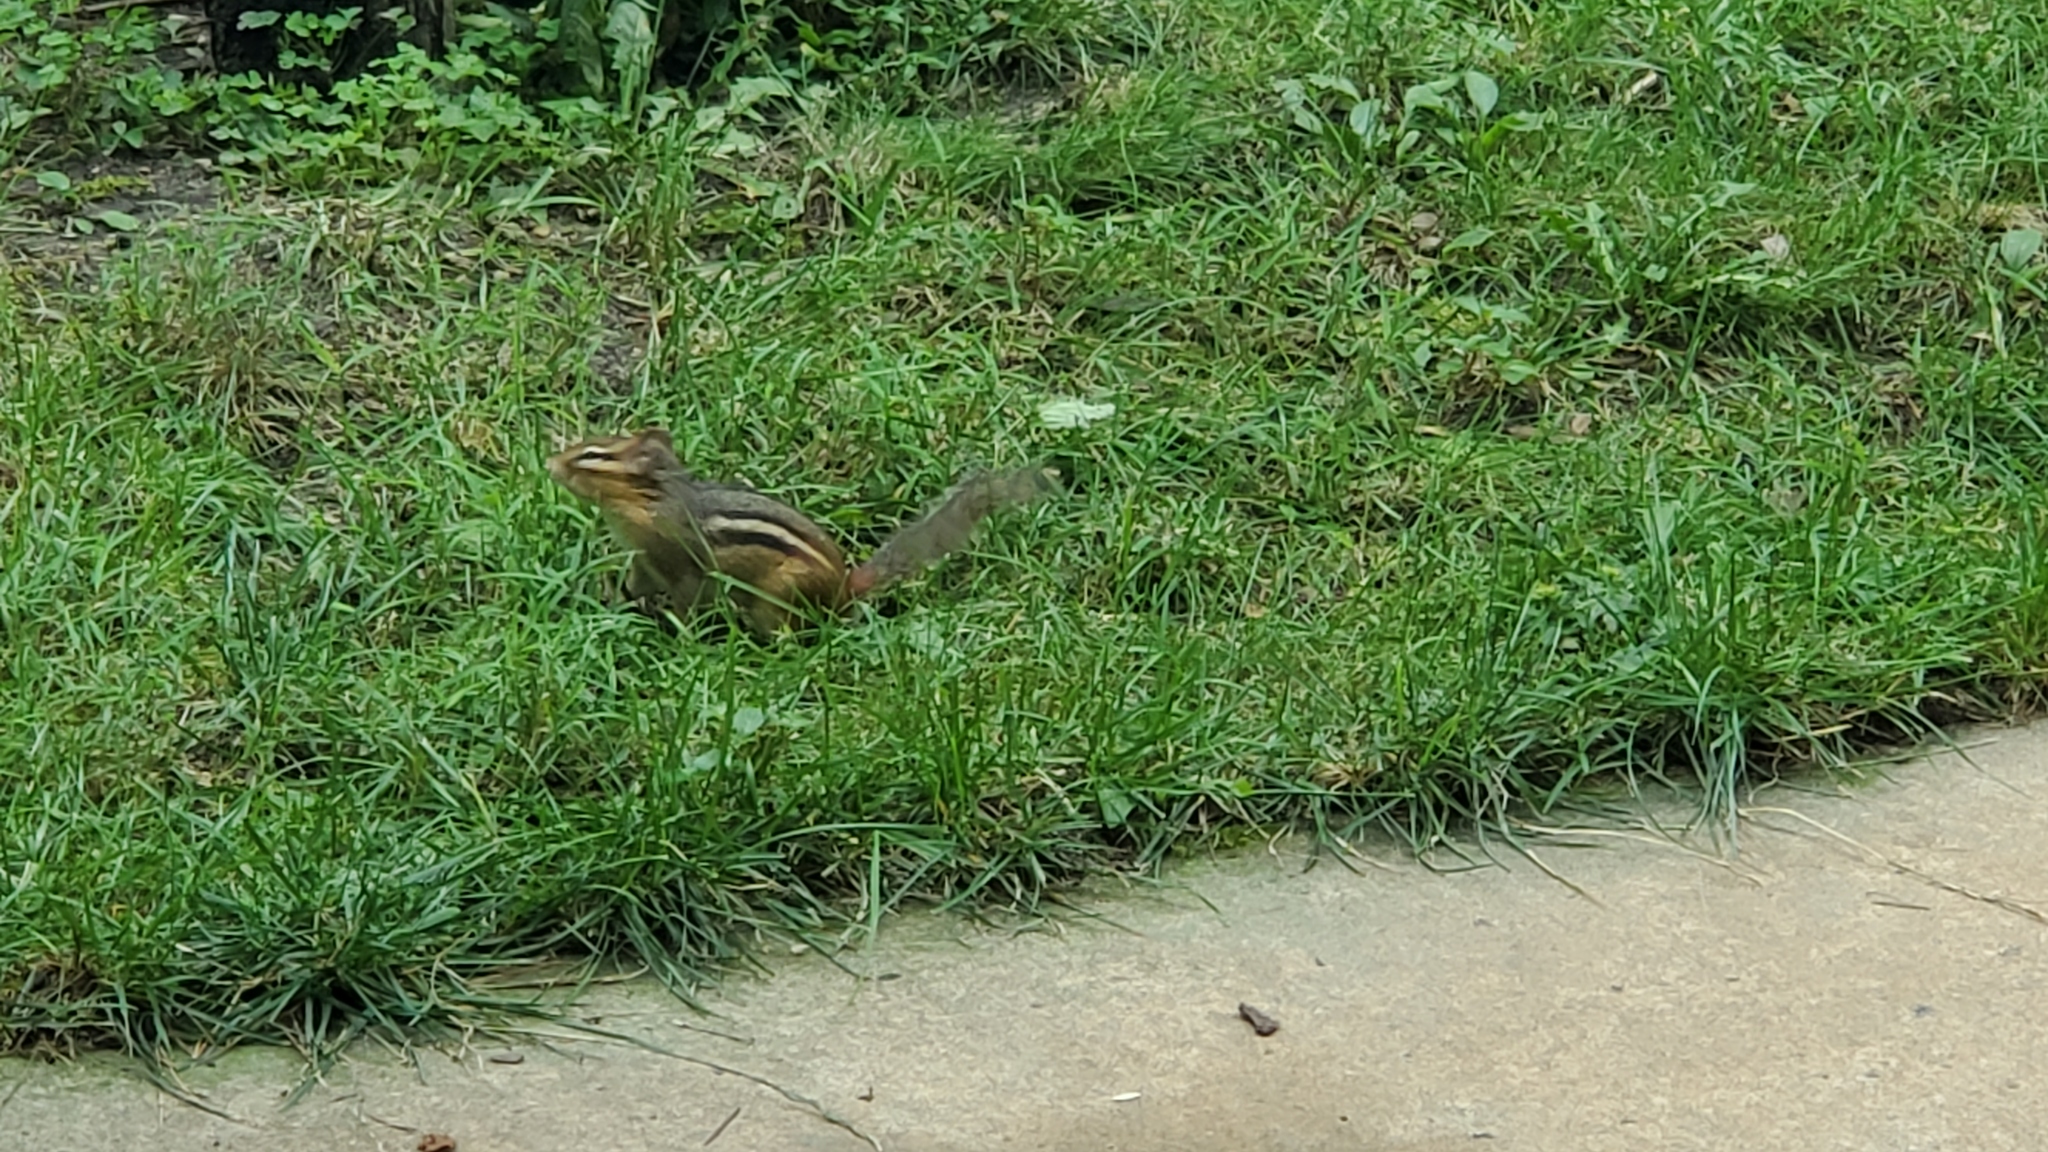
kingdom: Animalia
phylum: Chordata
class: Mammalia
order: Rodentia
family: Sciuridae
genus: Tamias
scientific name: Tamias striatus
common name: Eastern chipmunk
